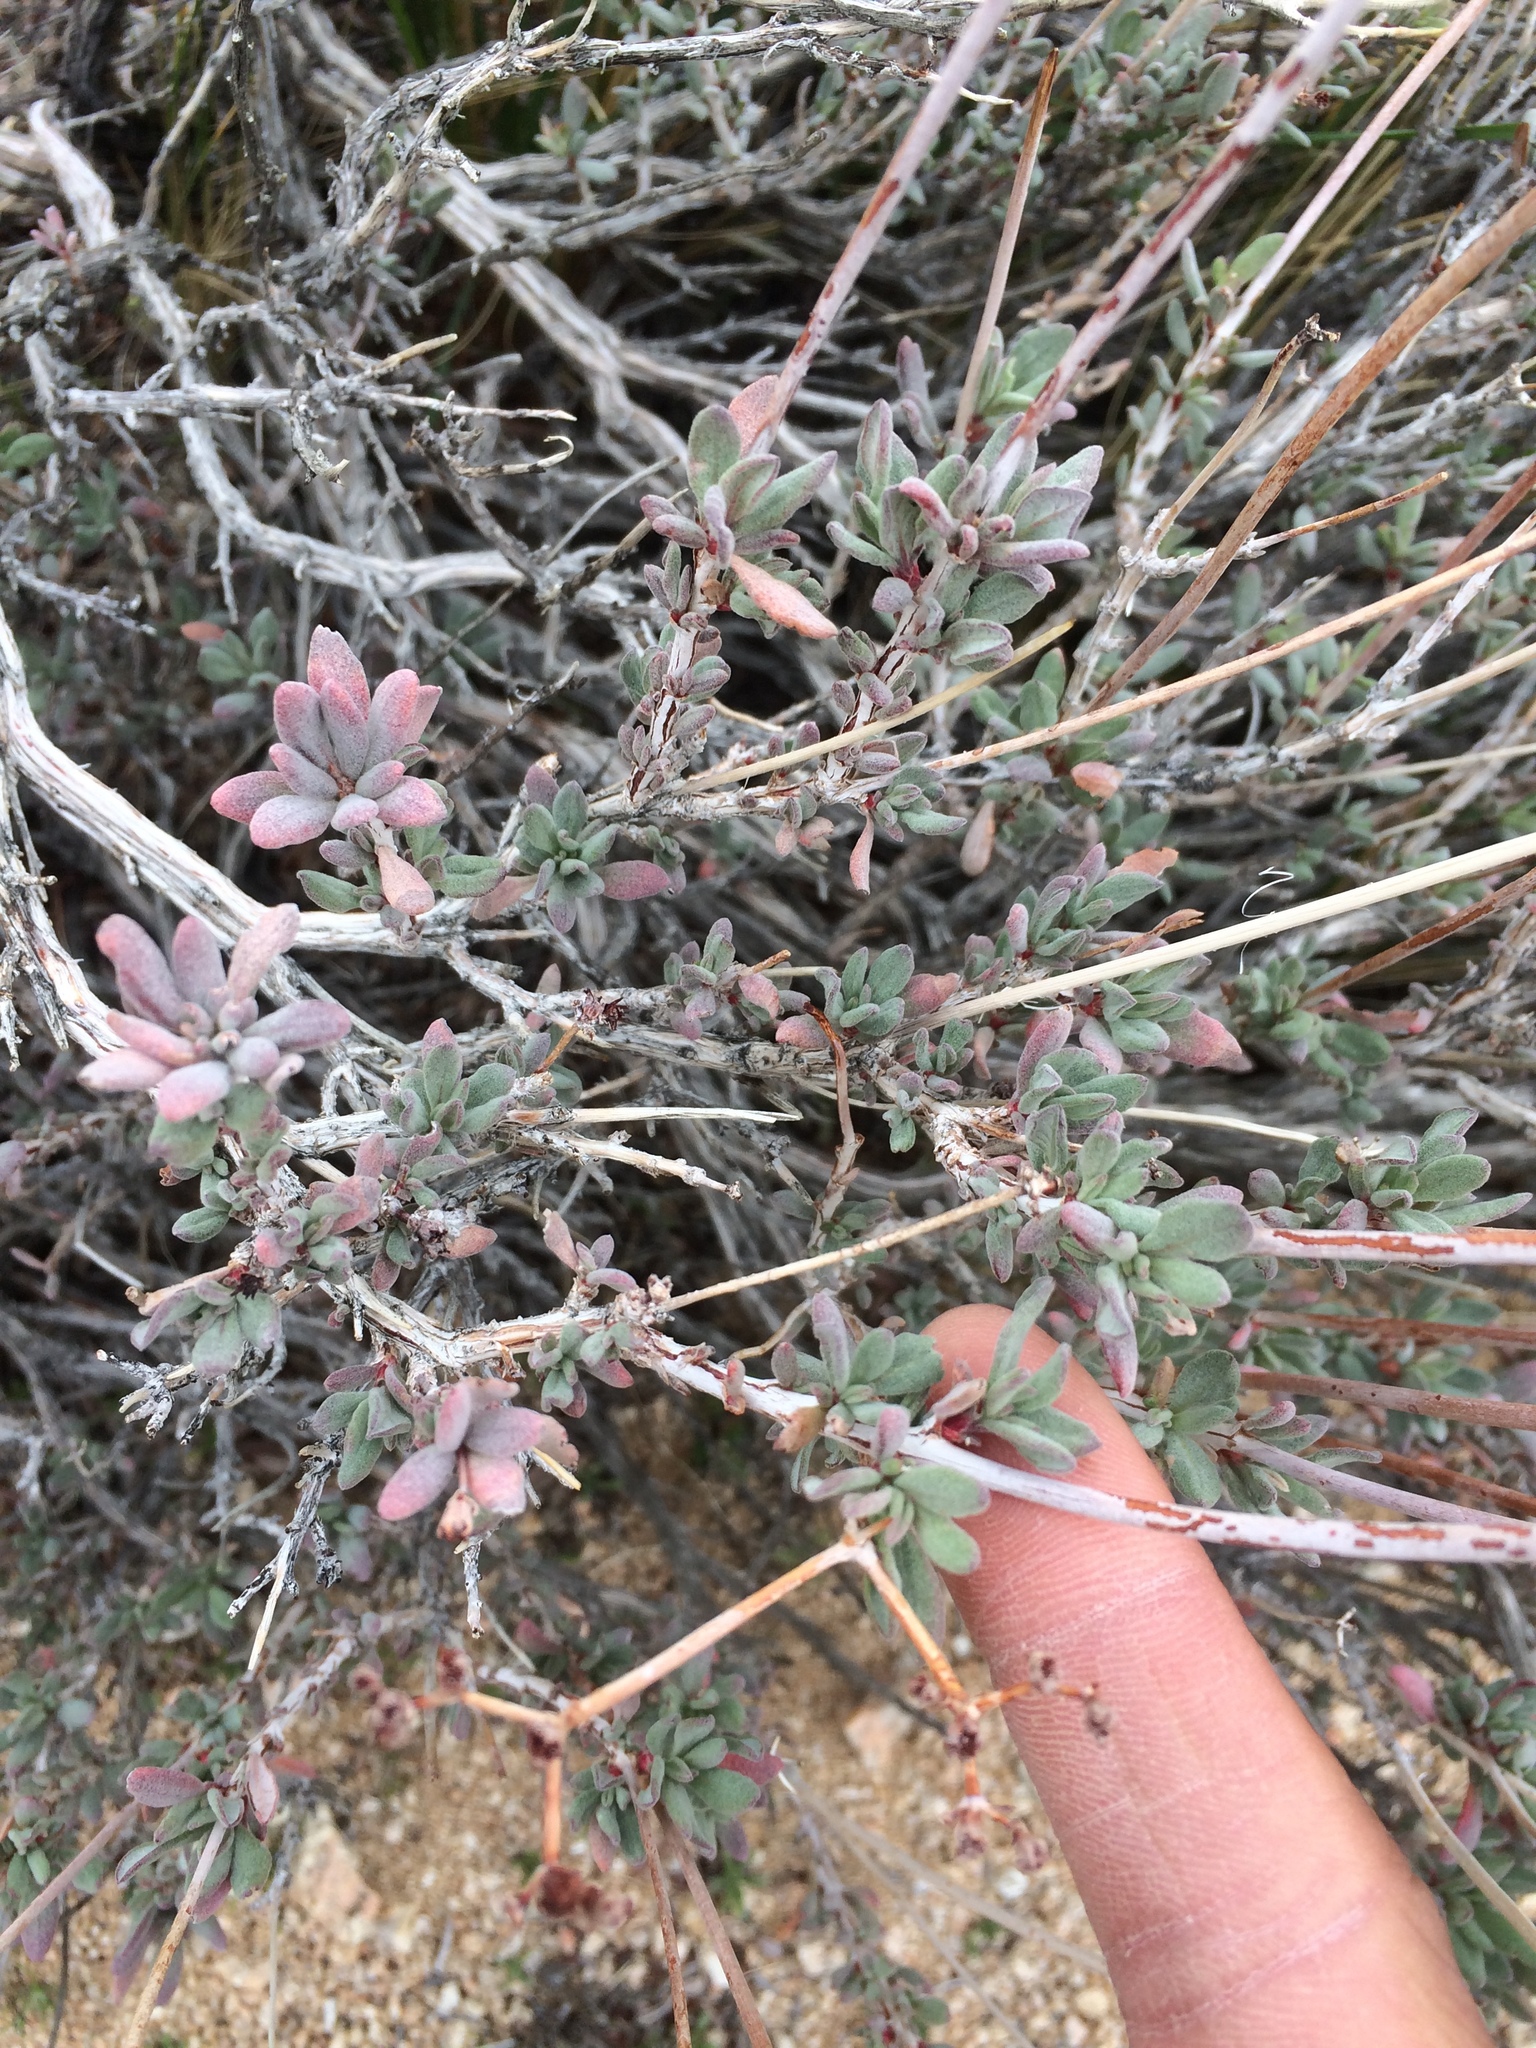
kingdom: Plantae
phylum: Tracheophyta
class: Magnoliopsida
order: Caryophyllales
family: Polygonaceae
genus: Eriogonum
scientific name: Eriogonum fasciculatum
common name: California wild buckwheat
